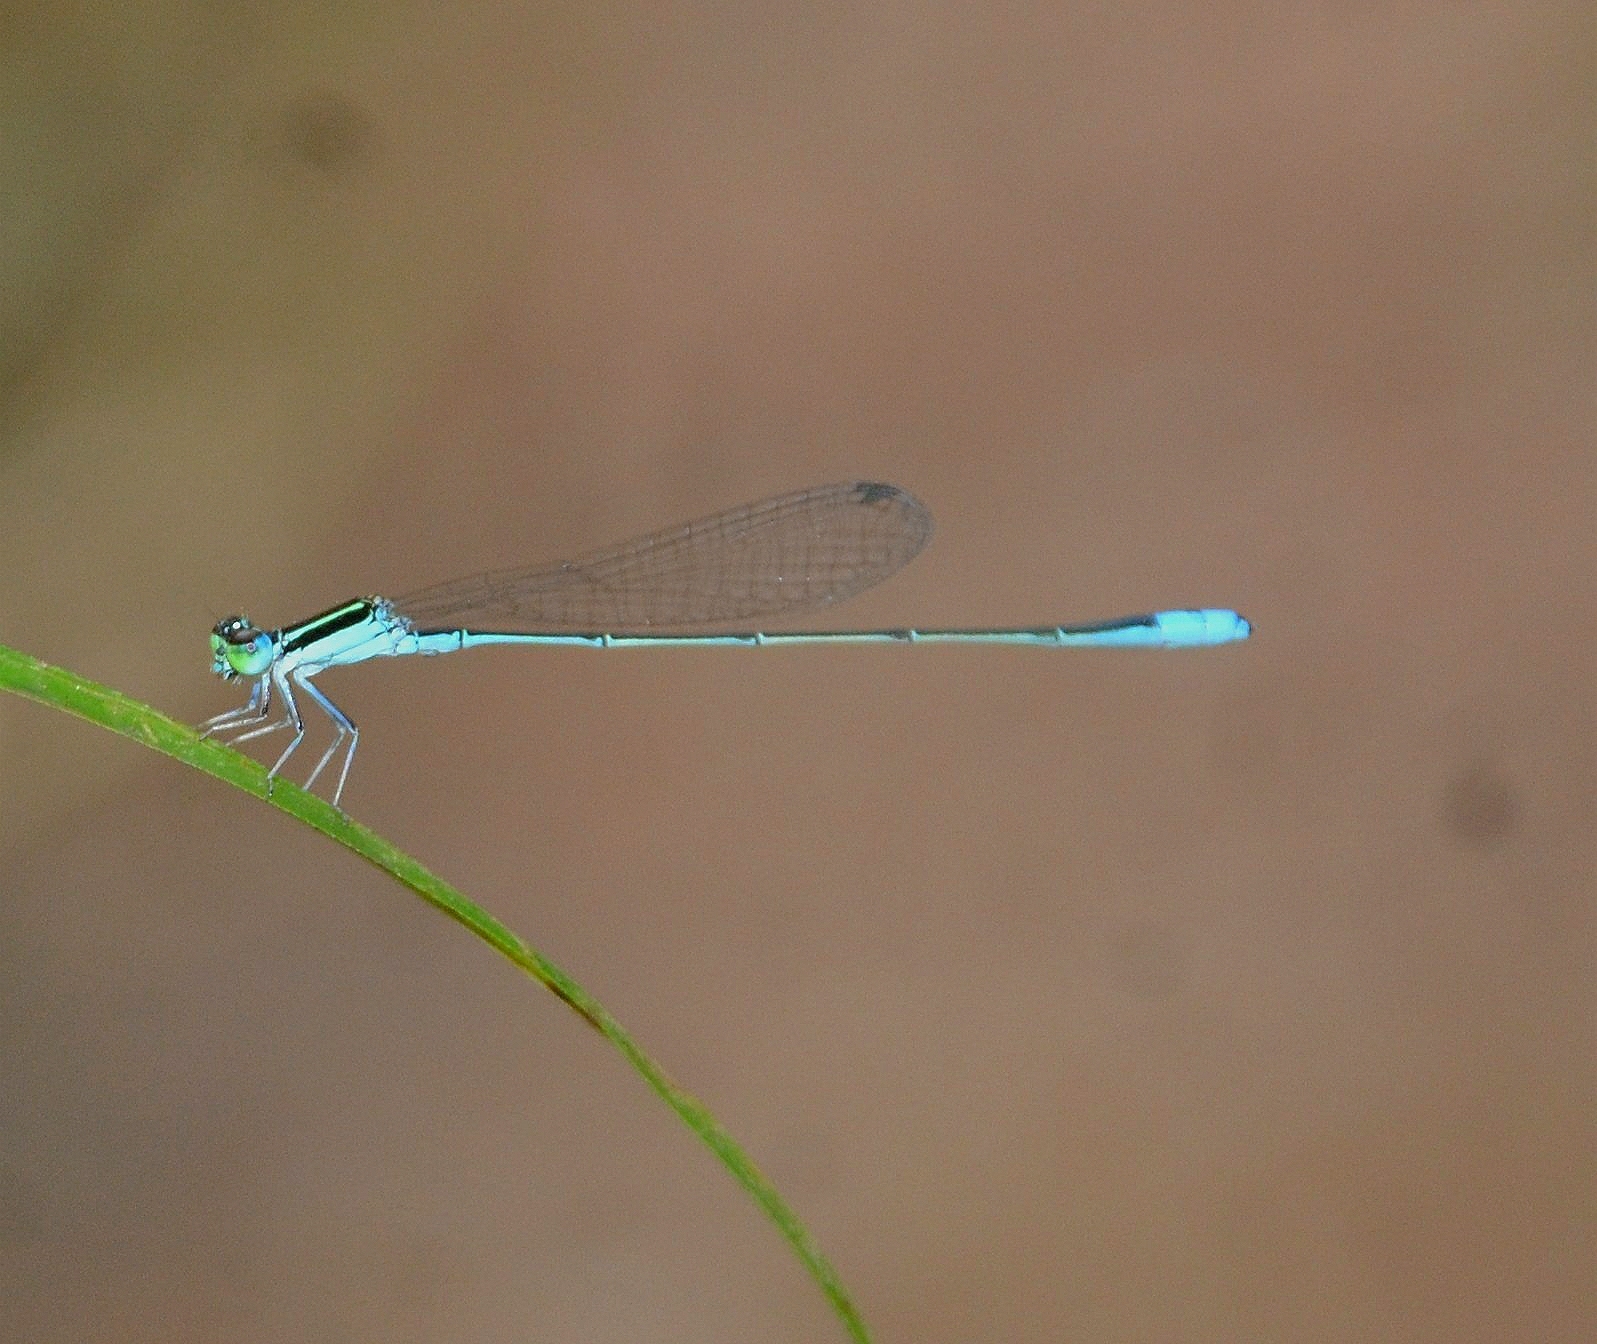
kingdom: Animalia
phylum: Arthropoda
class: Insecta
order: Odonata
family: Coenagrionidae
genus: Aciagrion
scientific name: Aciagrion occidentale
